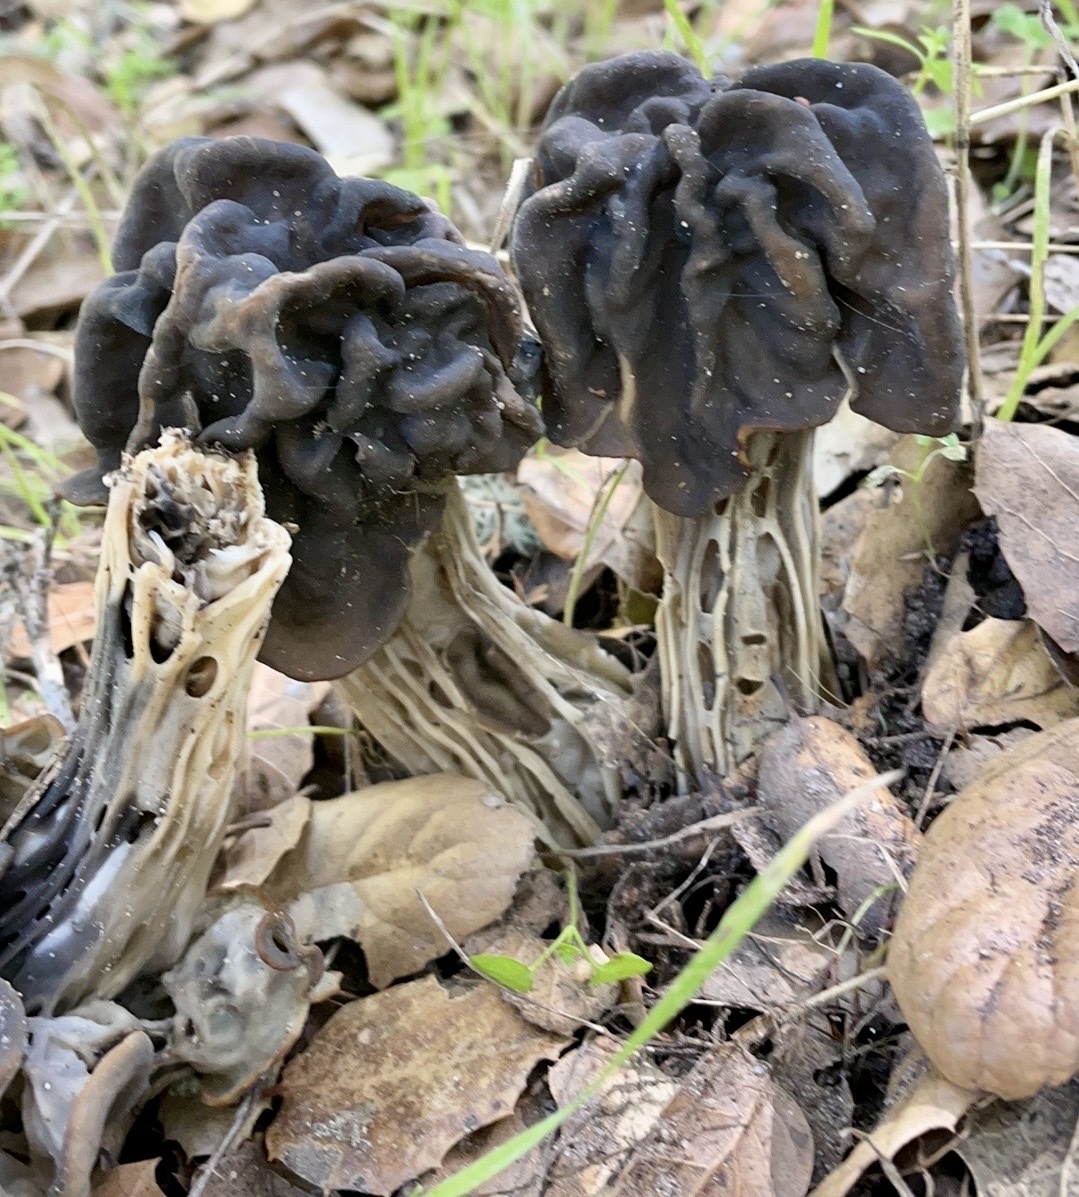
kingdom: Fungi
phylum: Ascomycota
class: Pezizomycetes
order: Pezizales
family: Helvellaceae
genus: Helvella
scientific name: Helvella dryophila
